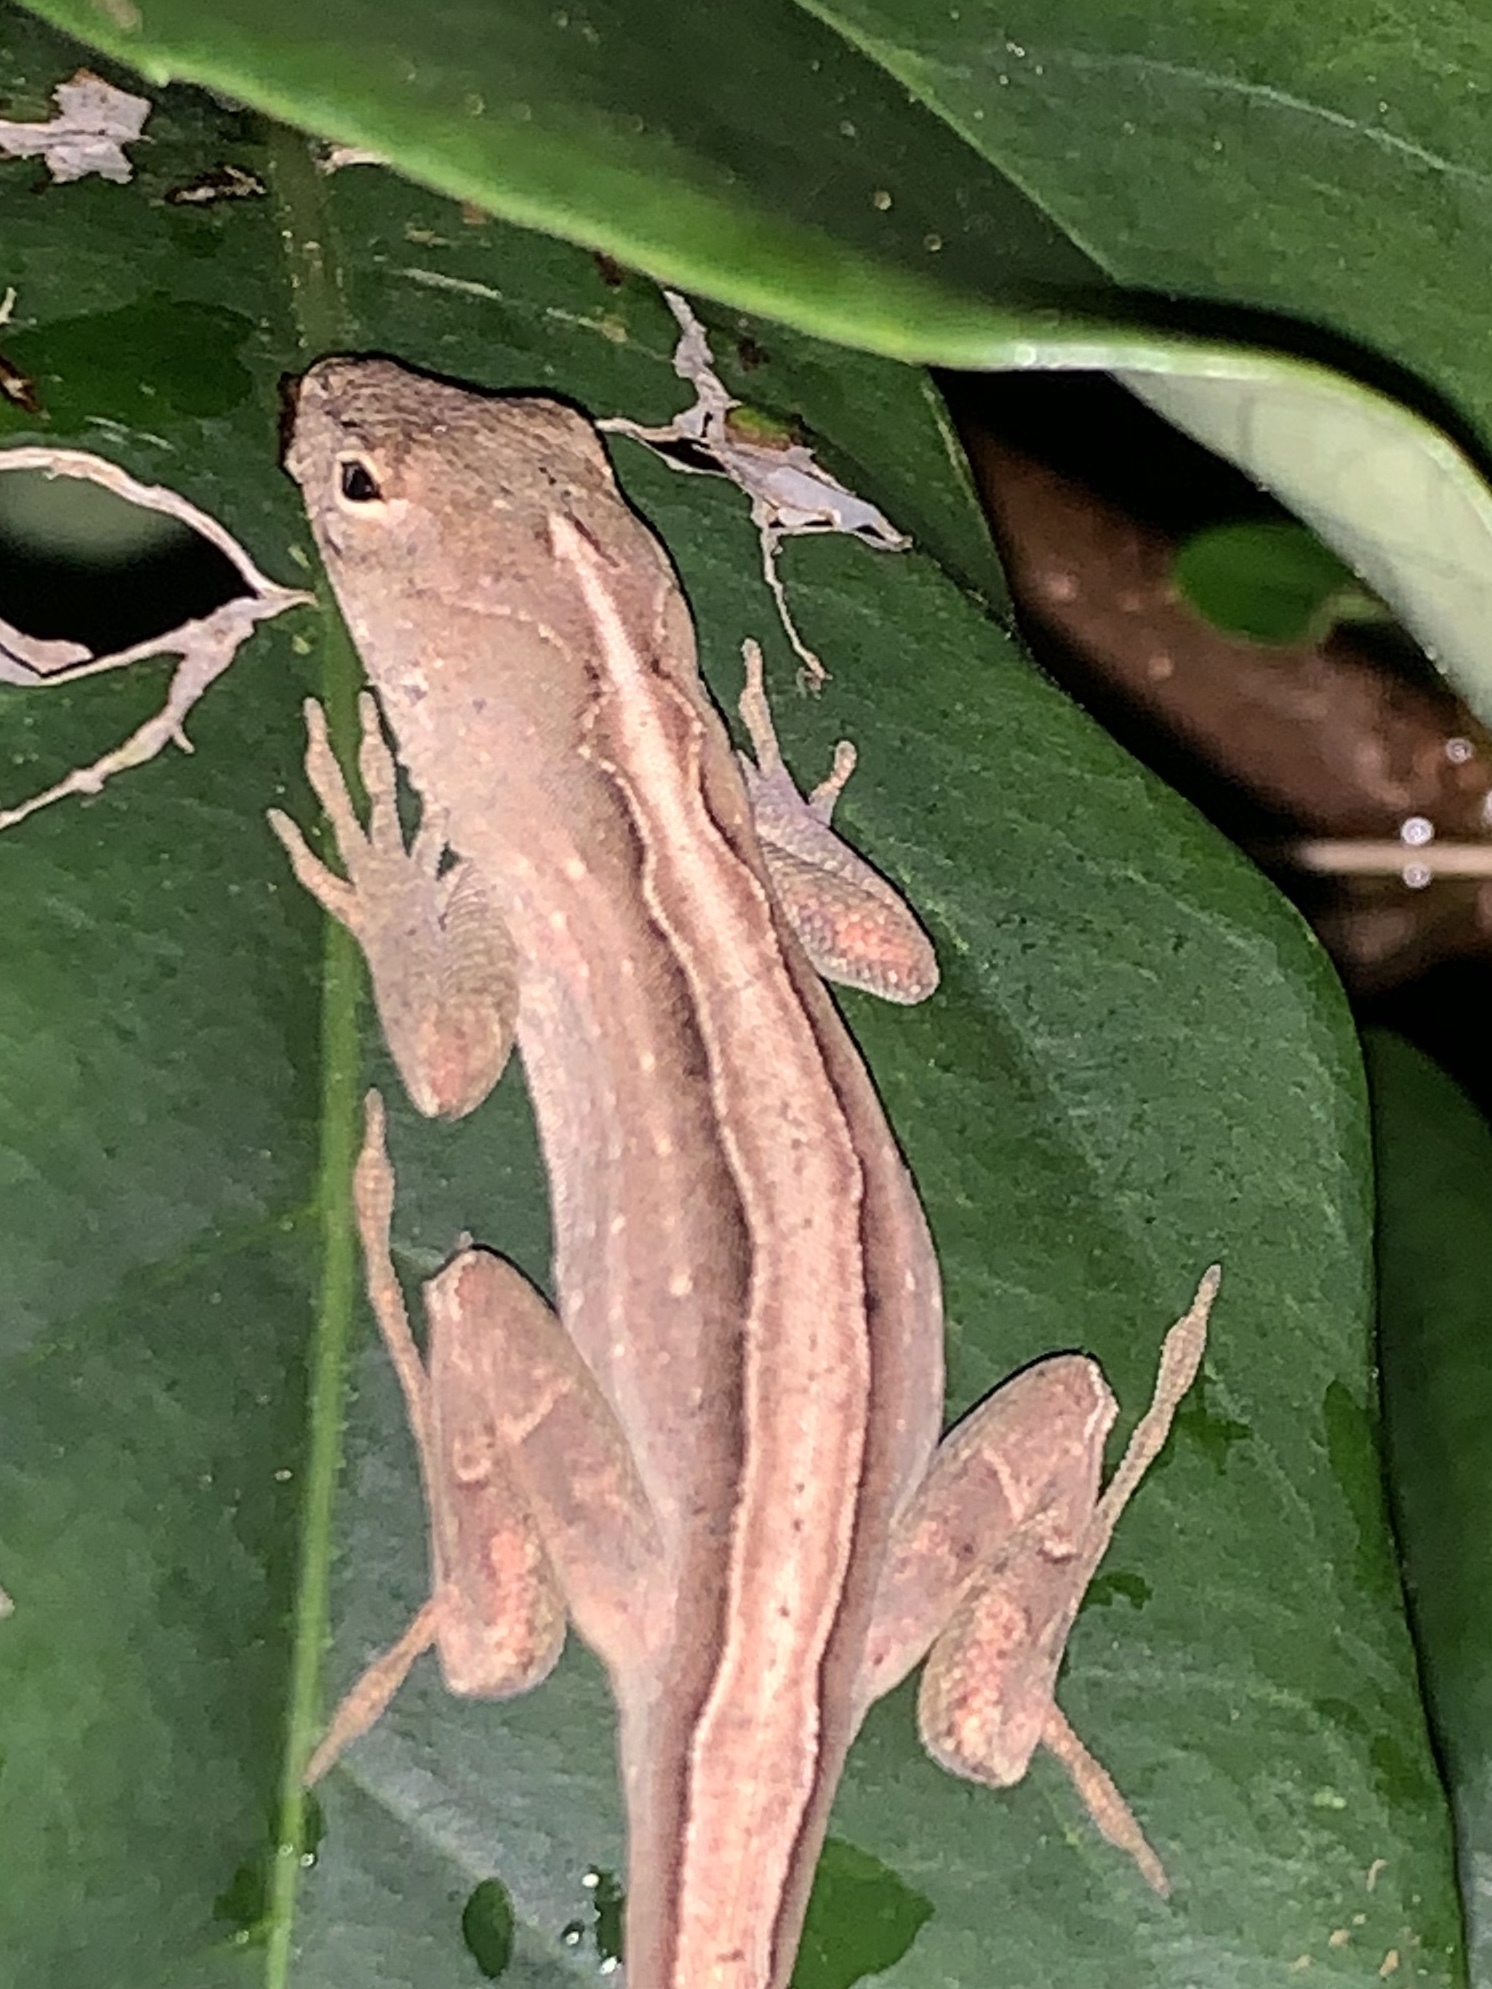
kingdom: Animalia
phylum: Chordata
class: Squamata
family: Dactyloidae
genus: Anolis
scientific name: Anolis sagrei
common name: Brown anole
